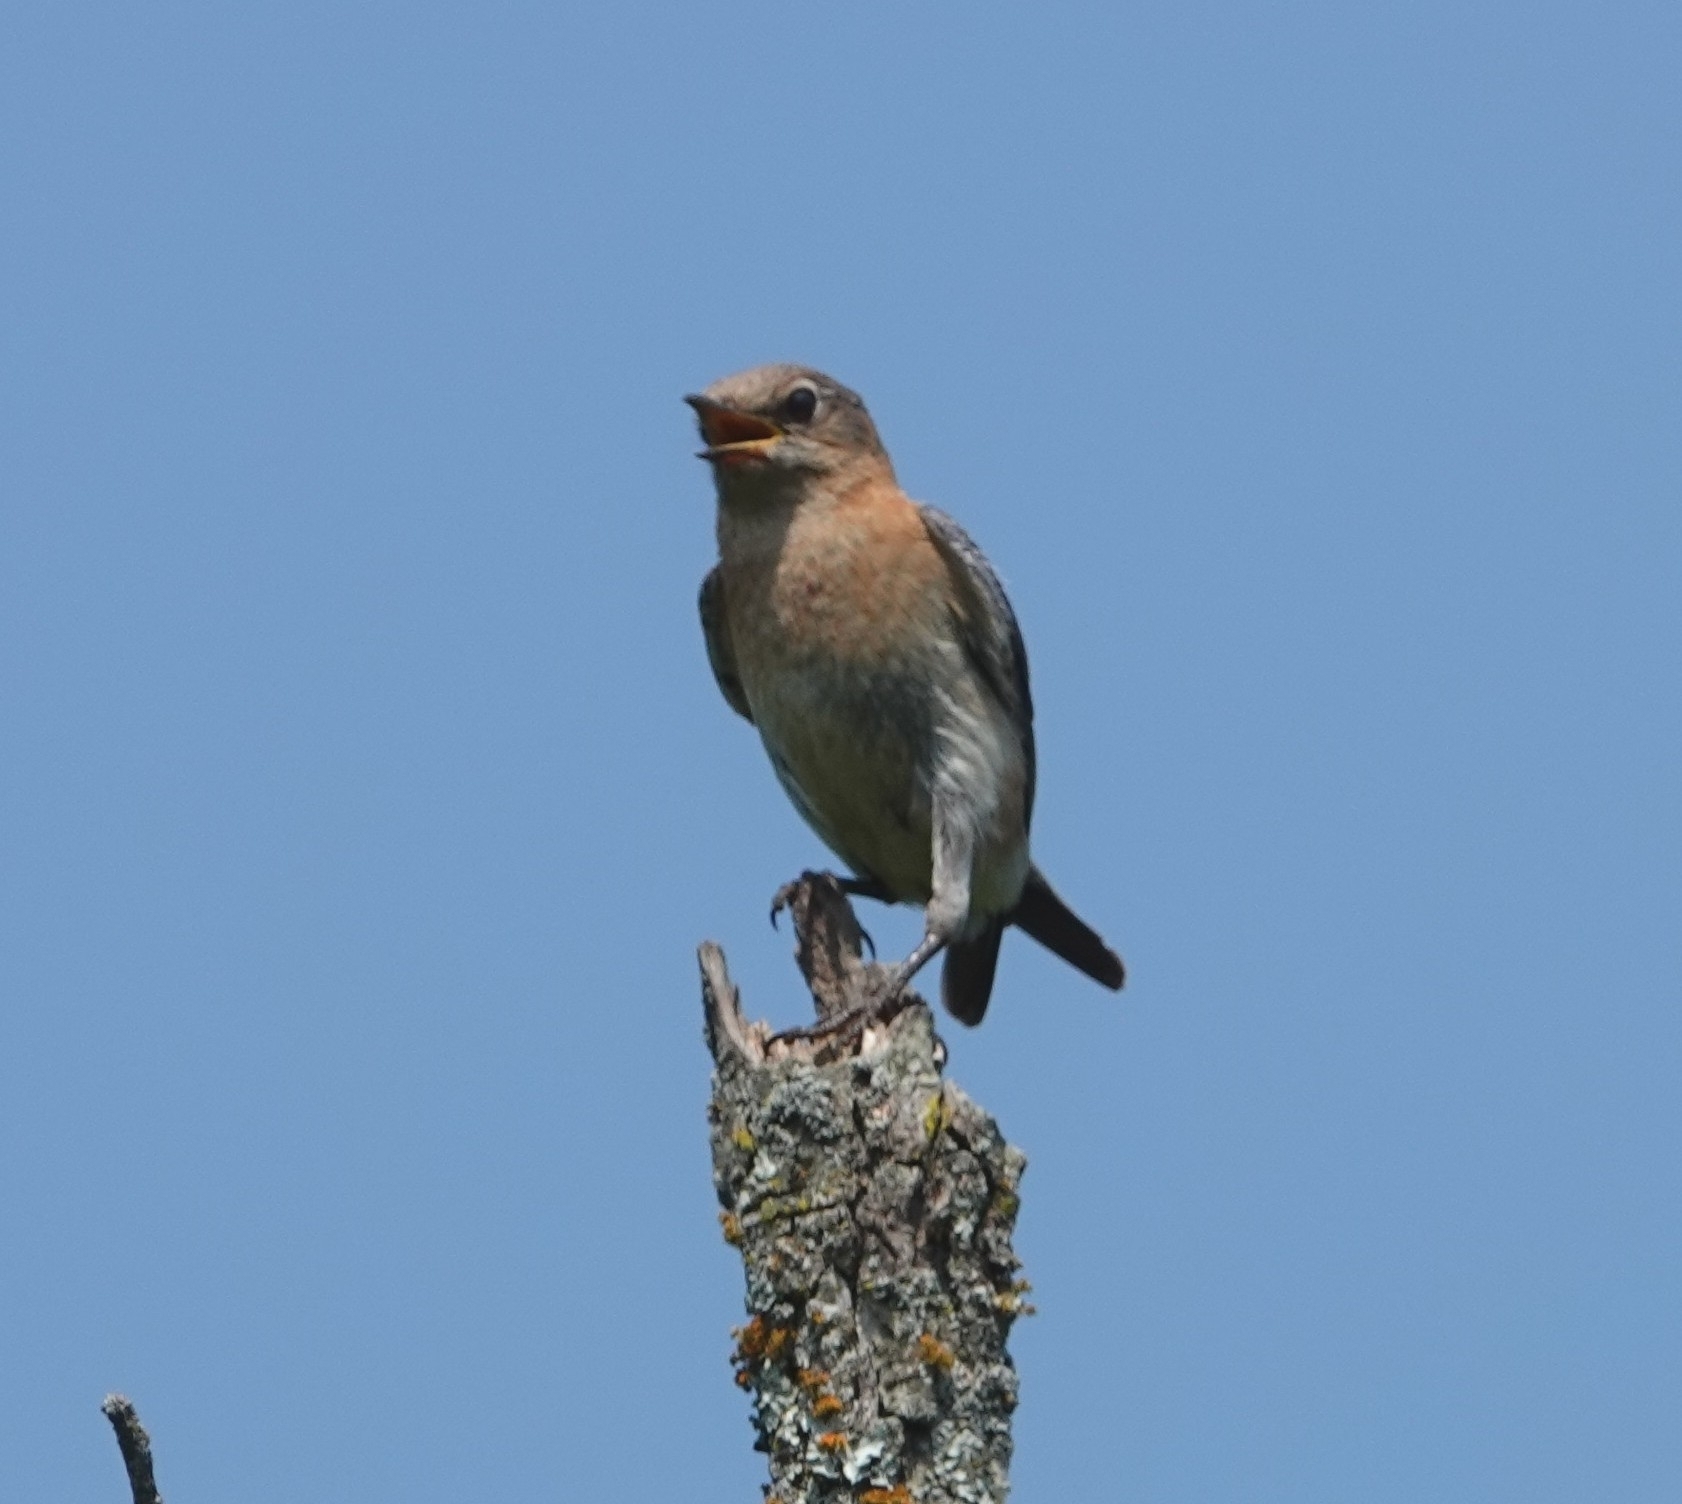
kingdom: Animalia
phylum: Chordata
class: Aves
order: Passeriformes
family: Turdidae
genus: Sialia
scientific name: Sialia sialis
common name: Eastern bluebird
